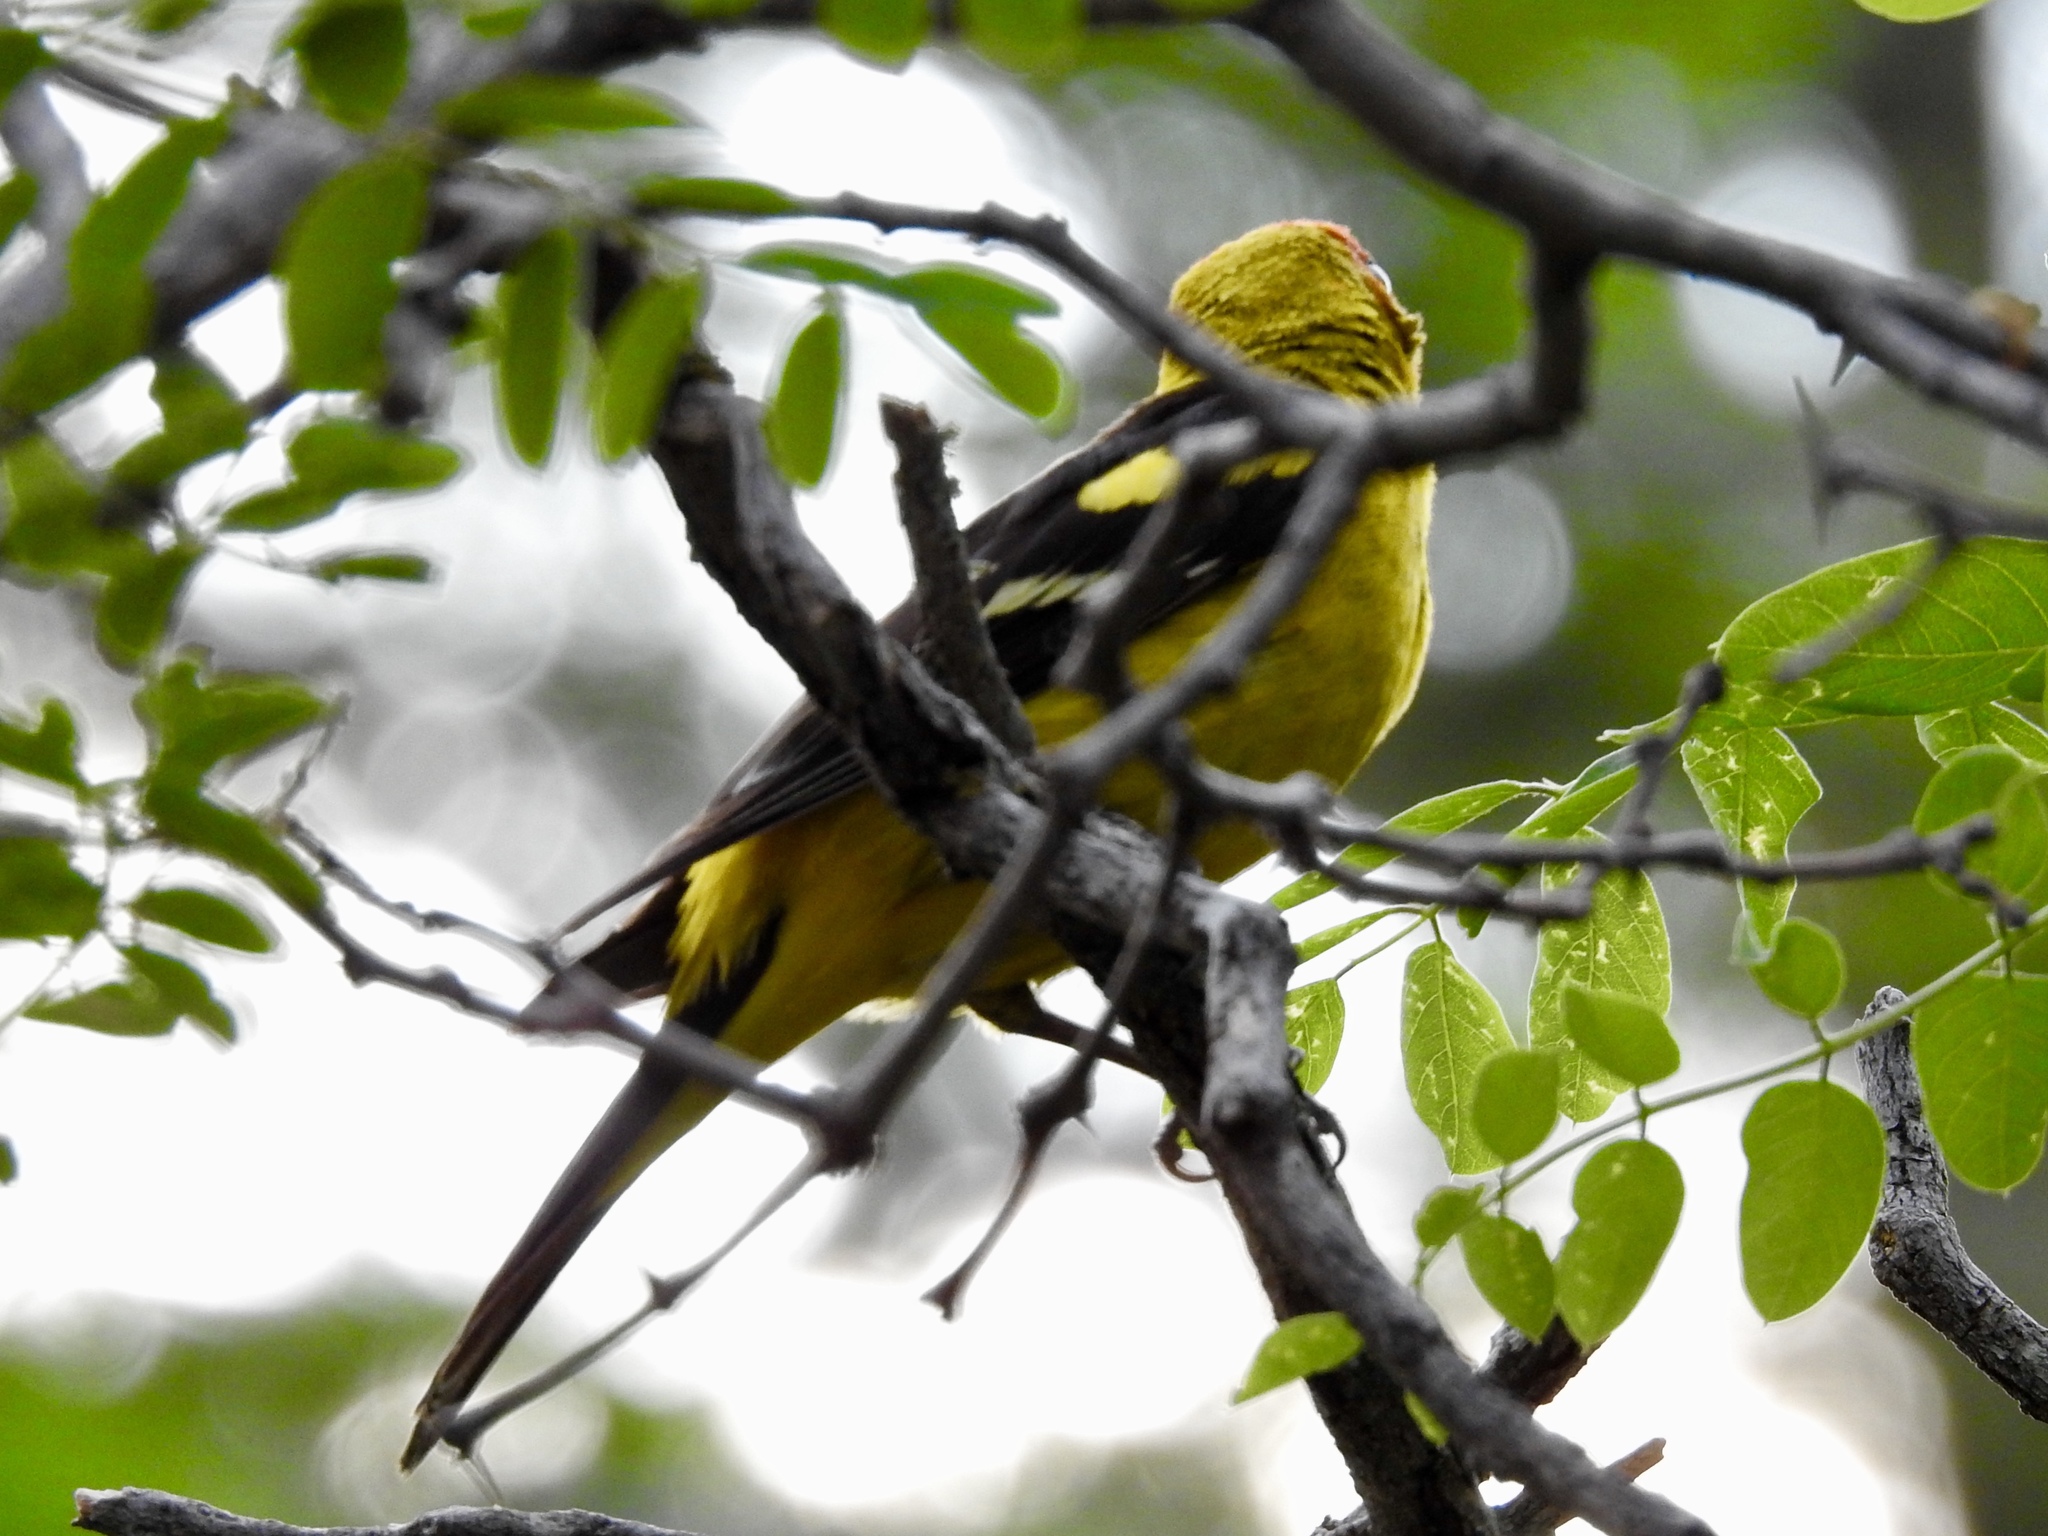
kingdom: Animalia
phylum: Chordata
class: Aves
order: Passeriformes
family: Cardinalidae
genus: Piranga
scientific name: Piranga ludoviciana
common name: Western tanager
